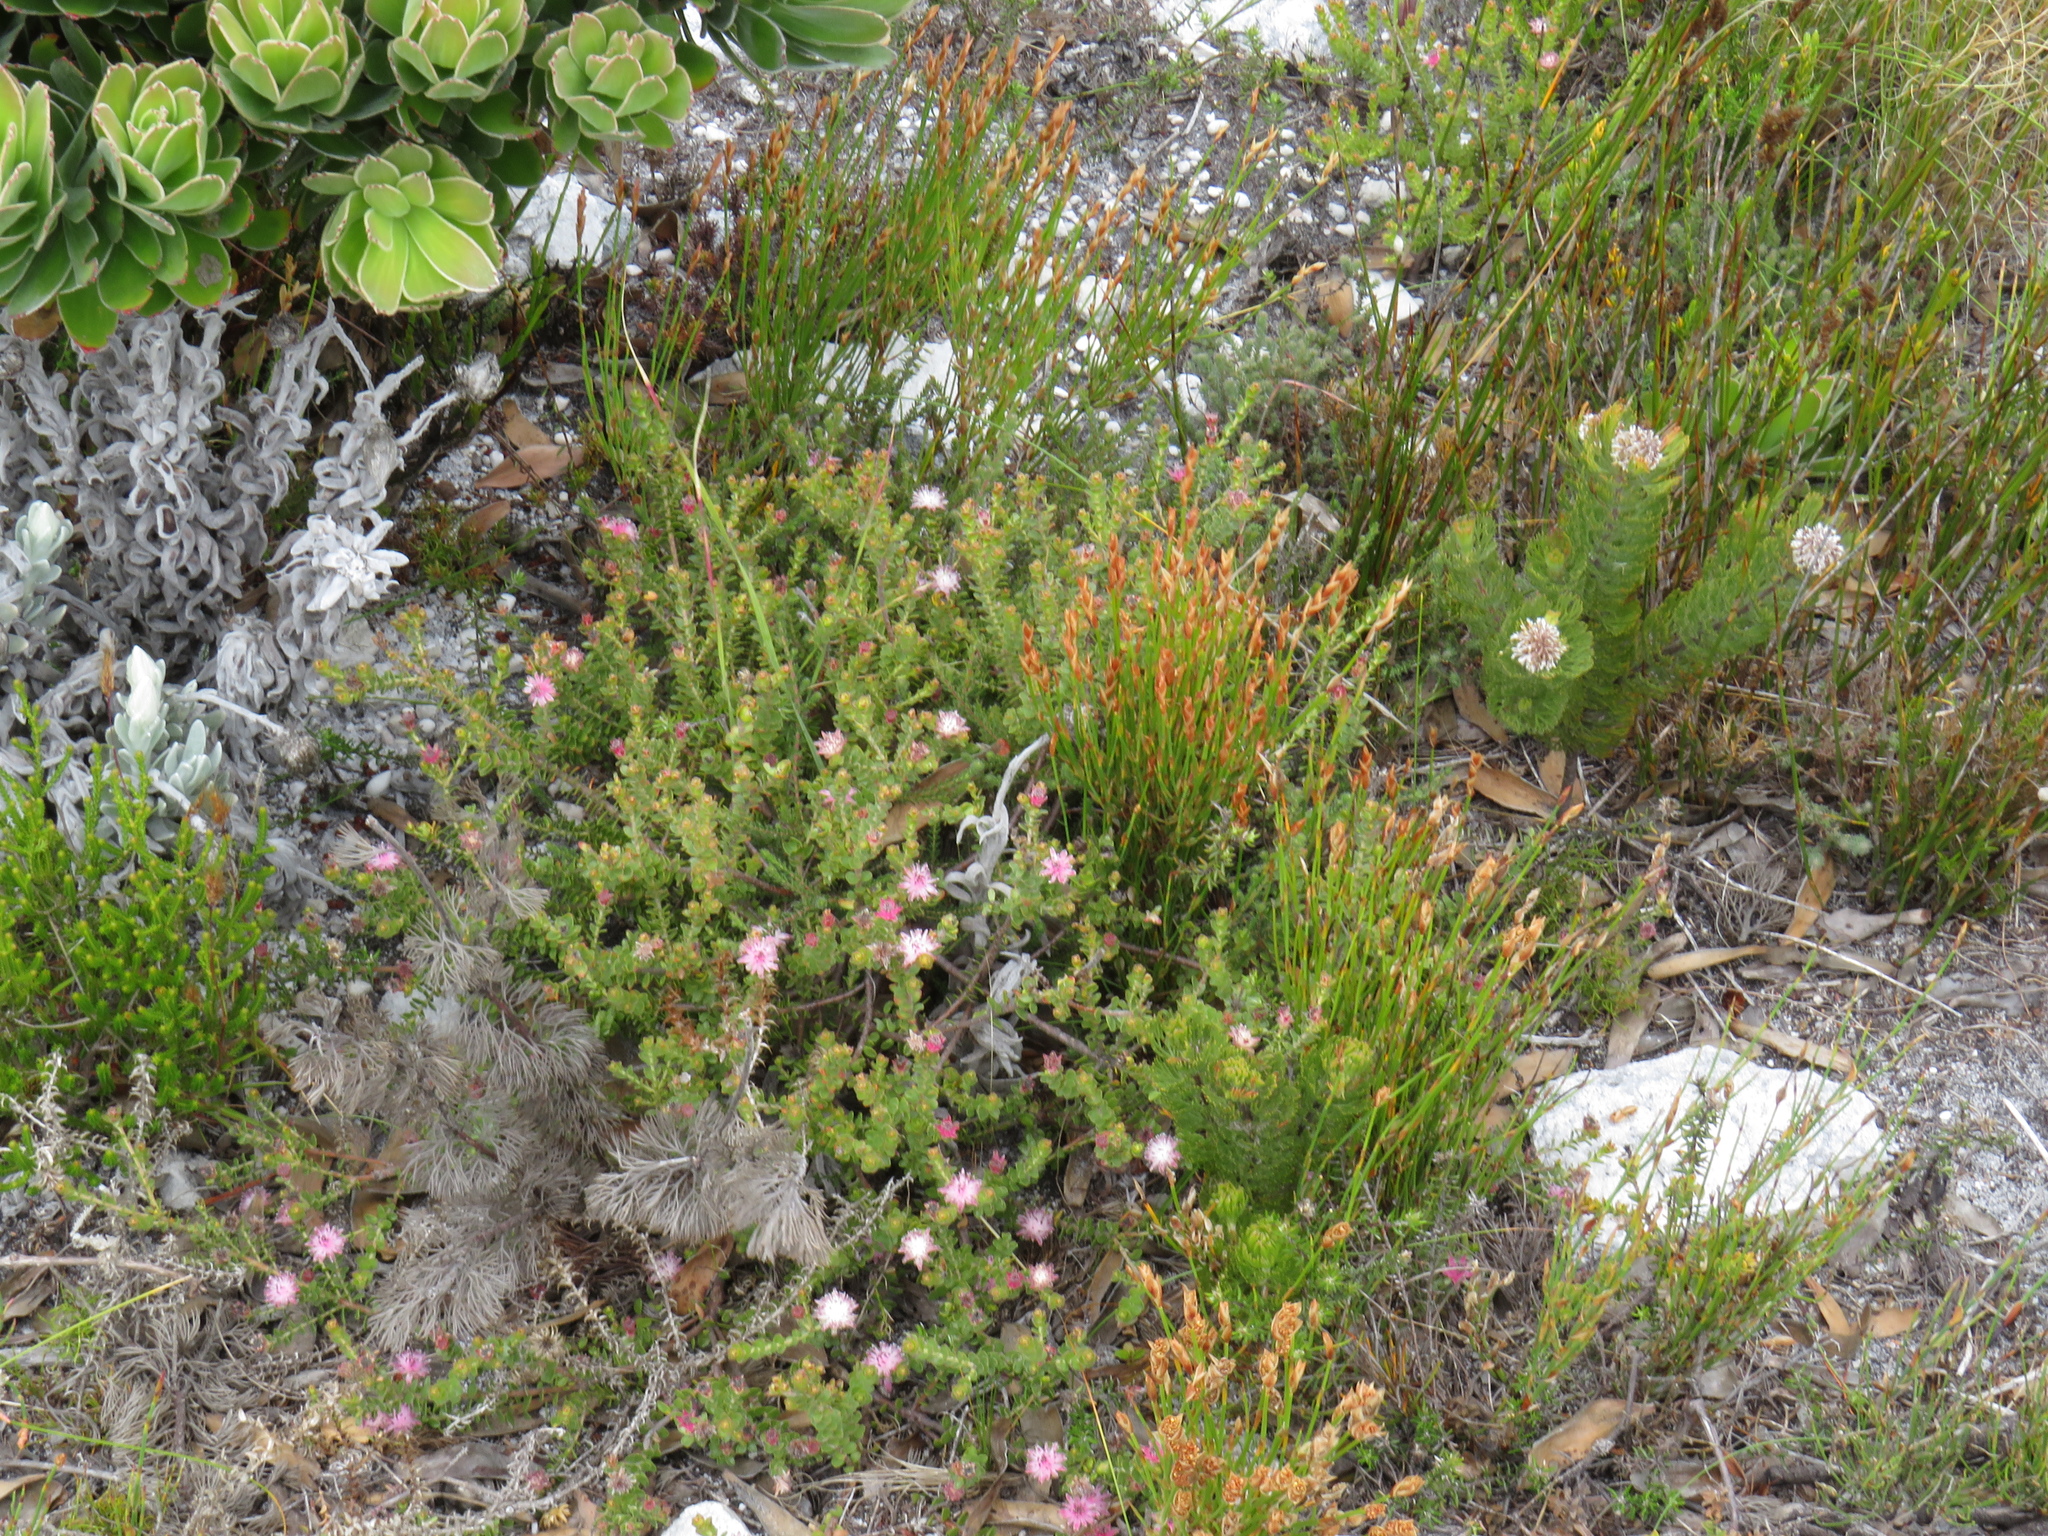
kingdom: Plantae
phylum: Tracheophyta
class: Magnoliopsida
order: Proteales
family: Proteaceae
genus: Diastella
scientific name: Diastella divaricata
